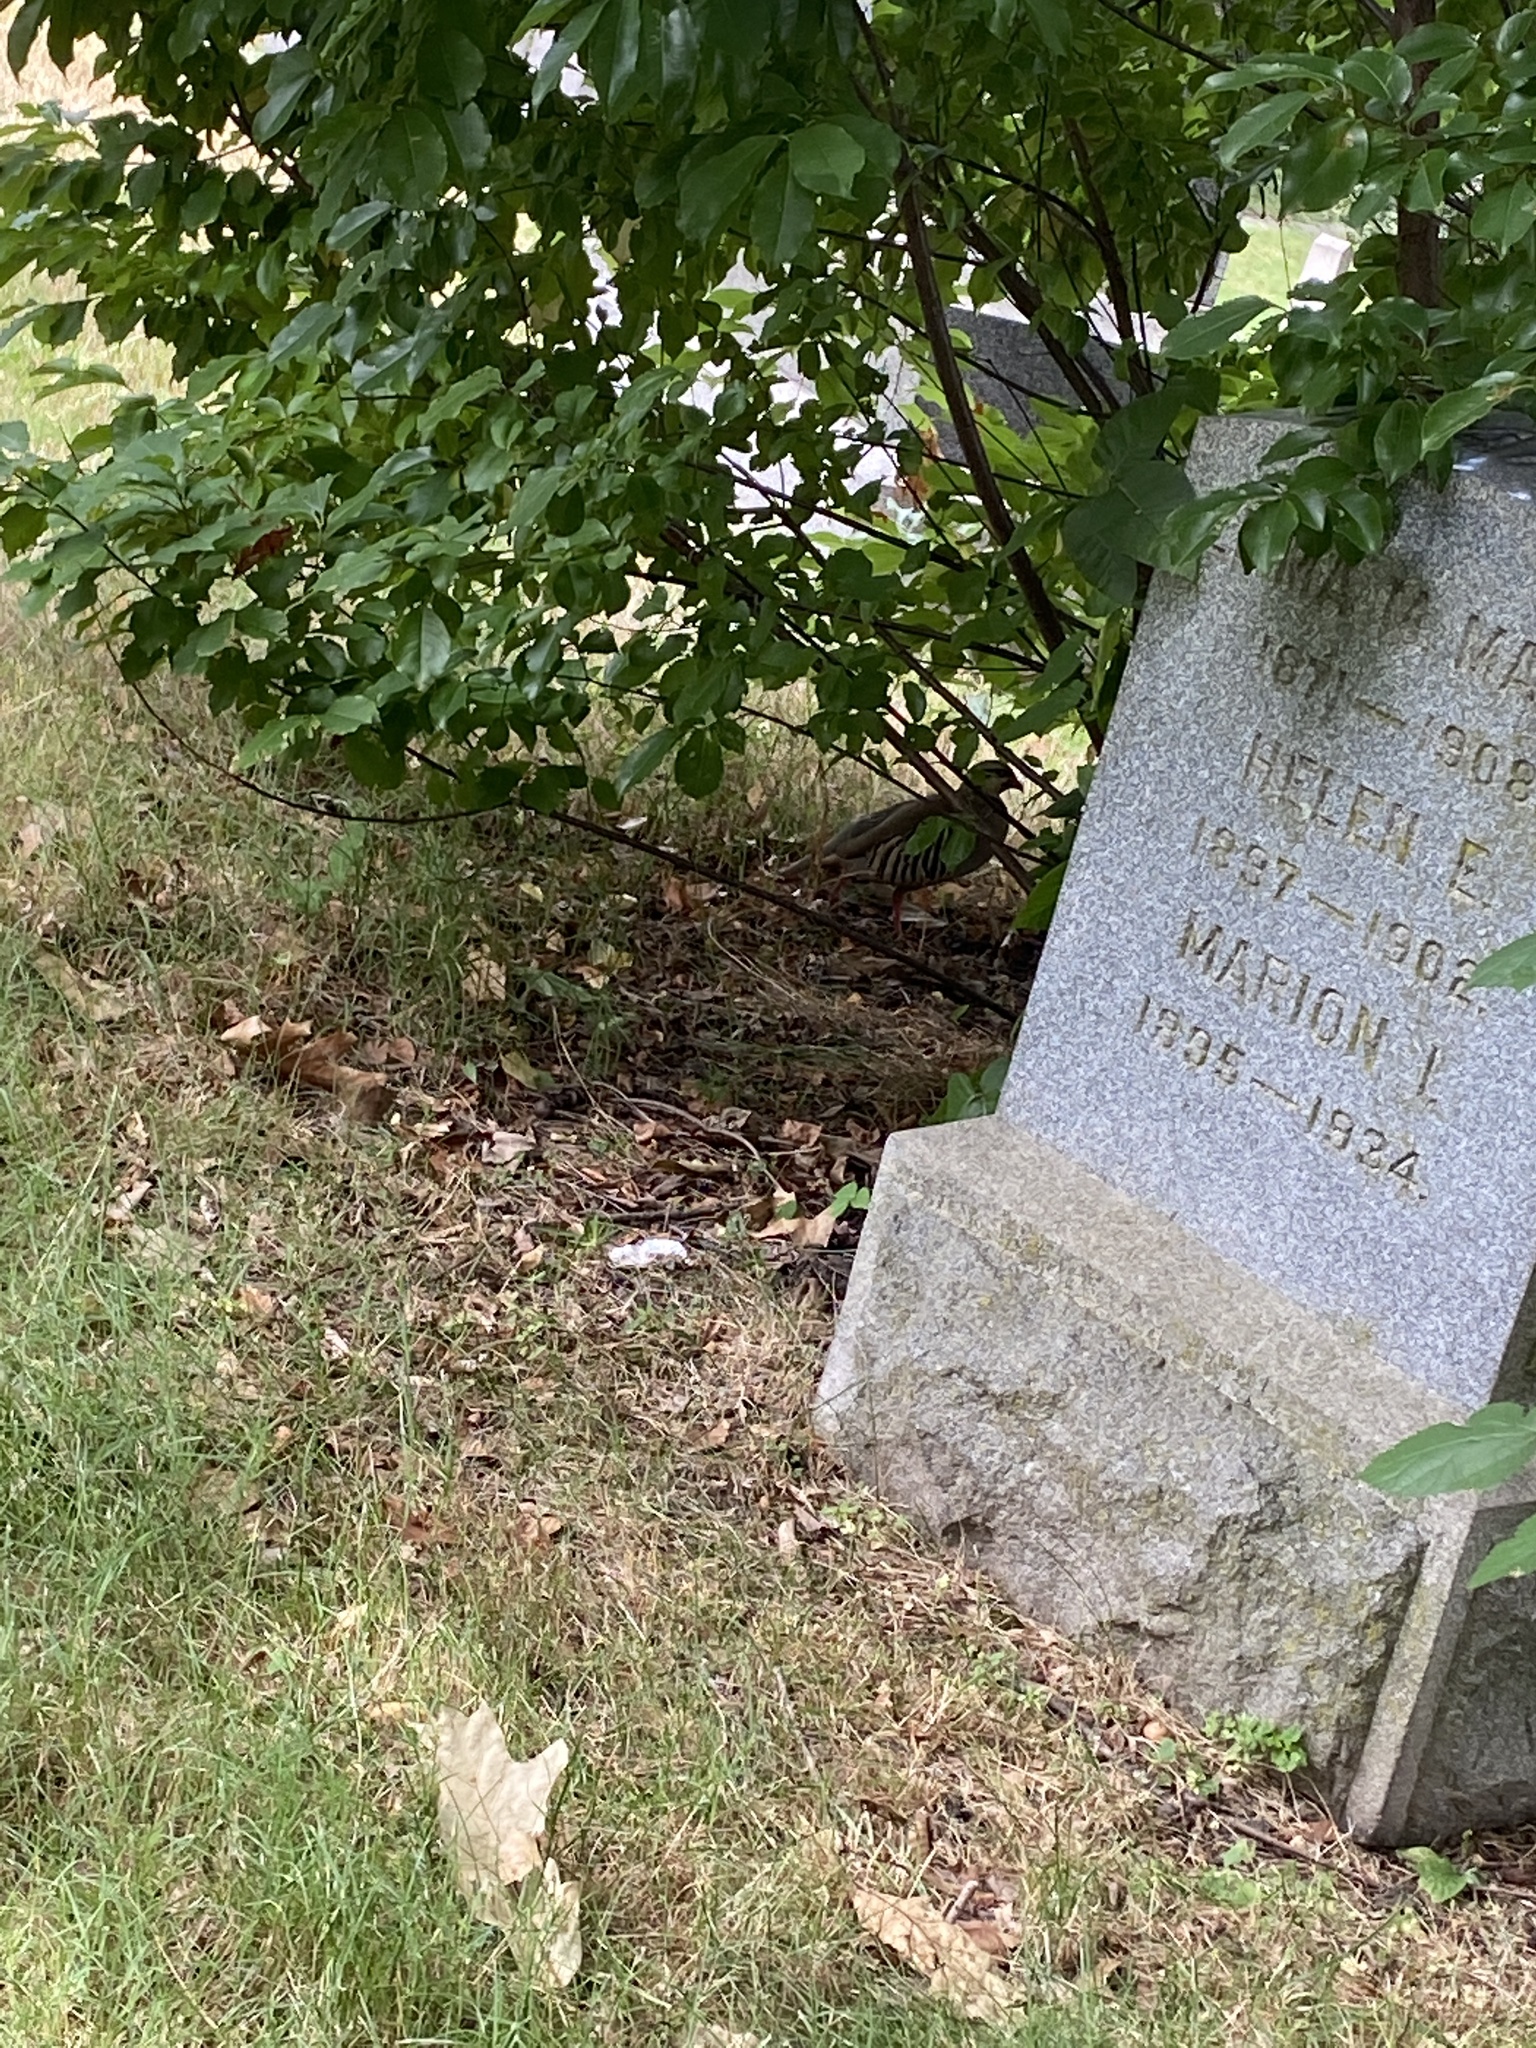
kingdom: Animalia
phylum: Chordata
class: Aves
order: Galliformes
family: Phasianidae
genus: Alectoris
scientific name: Alectoris chukar
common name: Chukar
